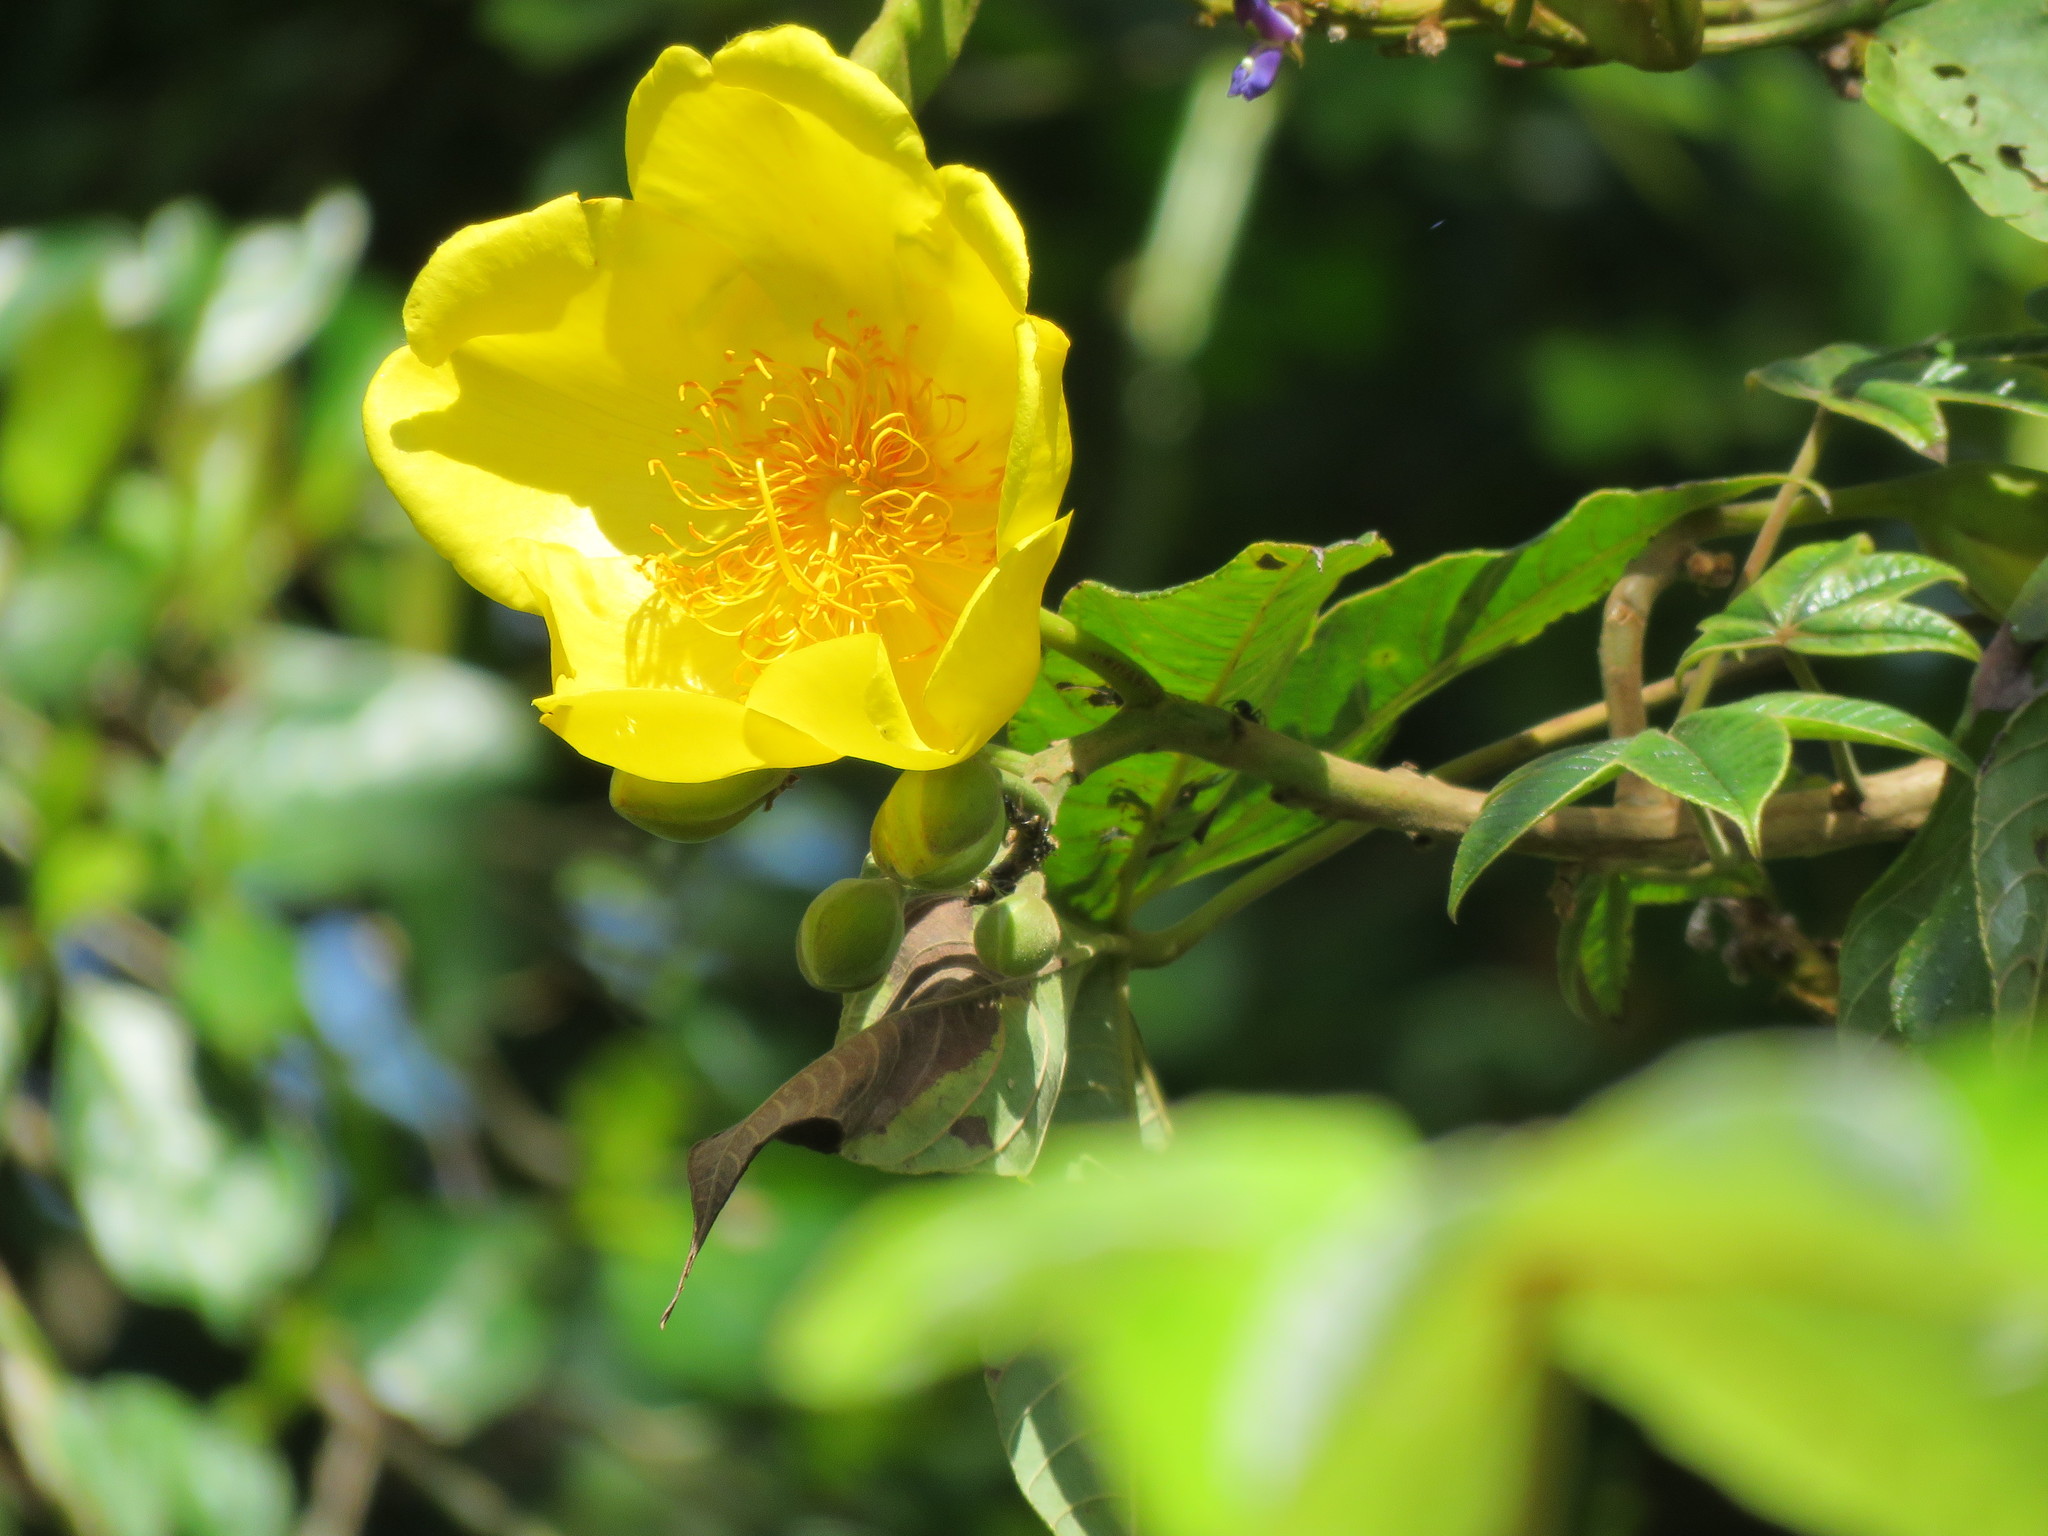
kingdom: Plantae
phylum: Tracheophyta
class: Magnoliopsida
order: Malvales
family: Cochlospermaceae
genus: Cochlospermum
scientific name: Cochlospermum vitifolium
